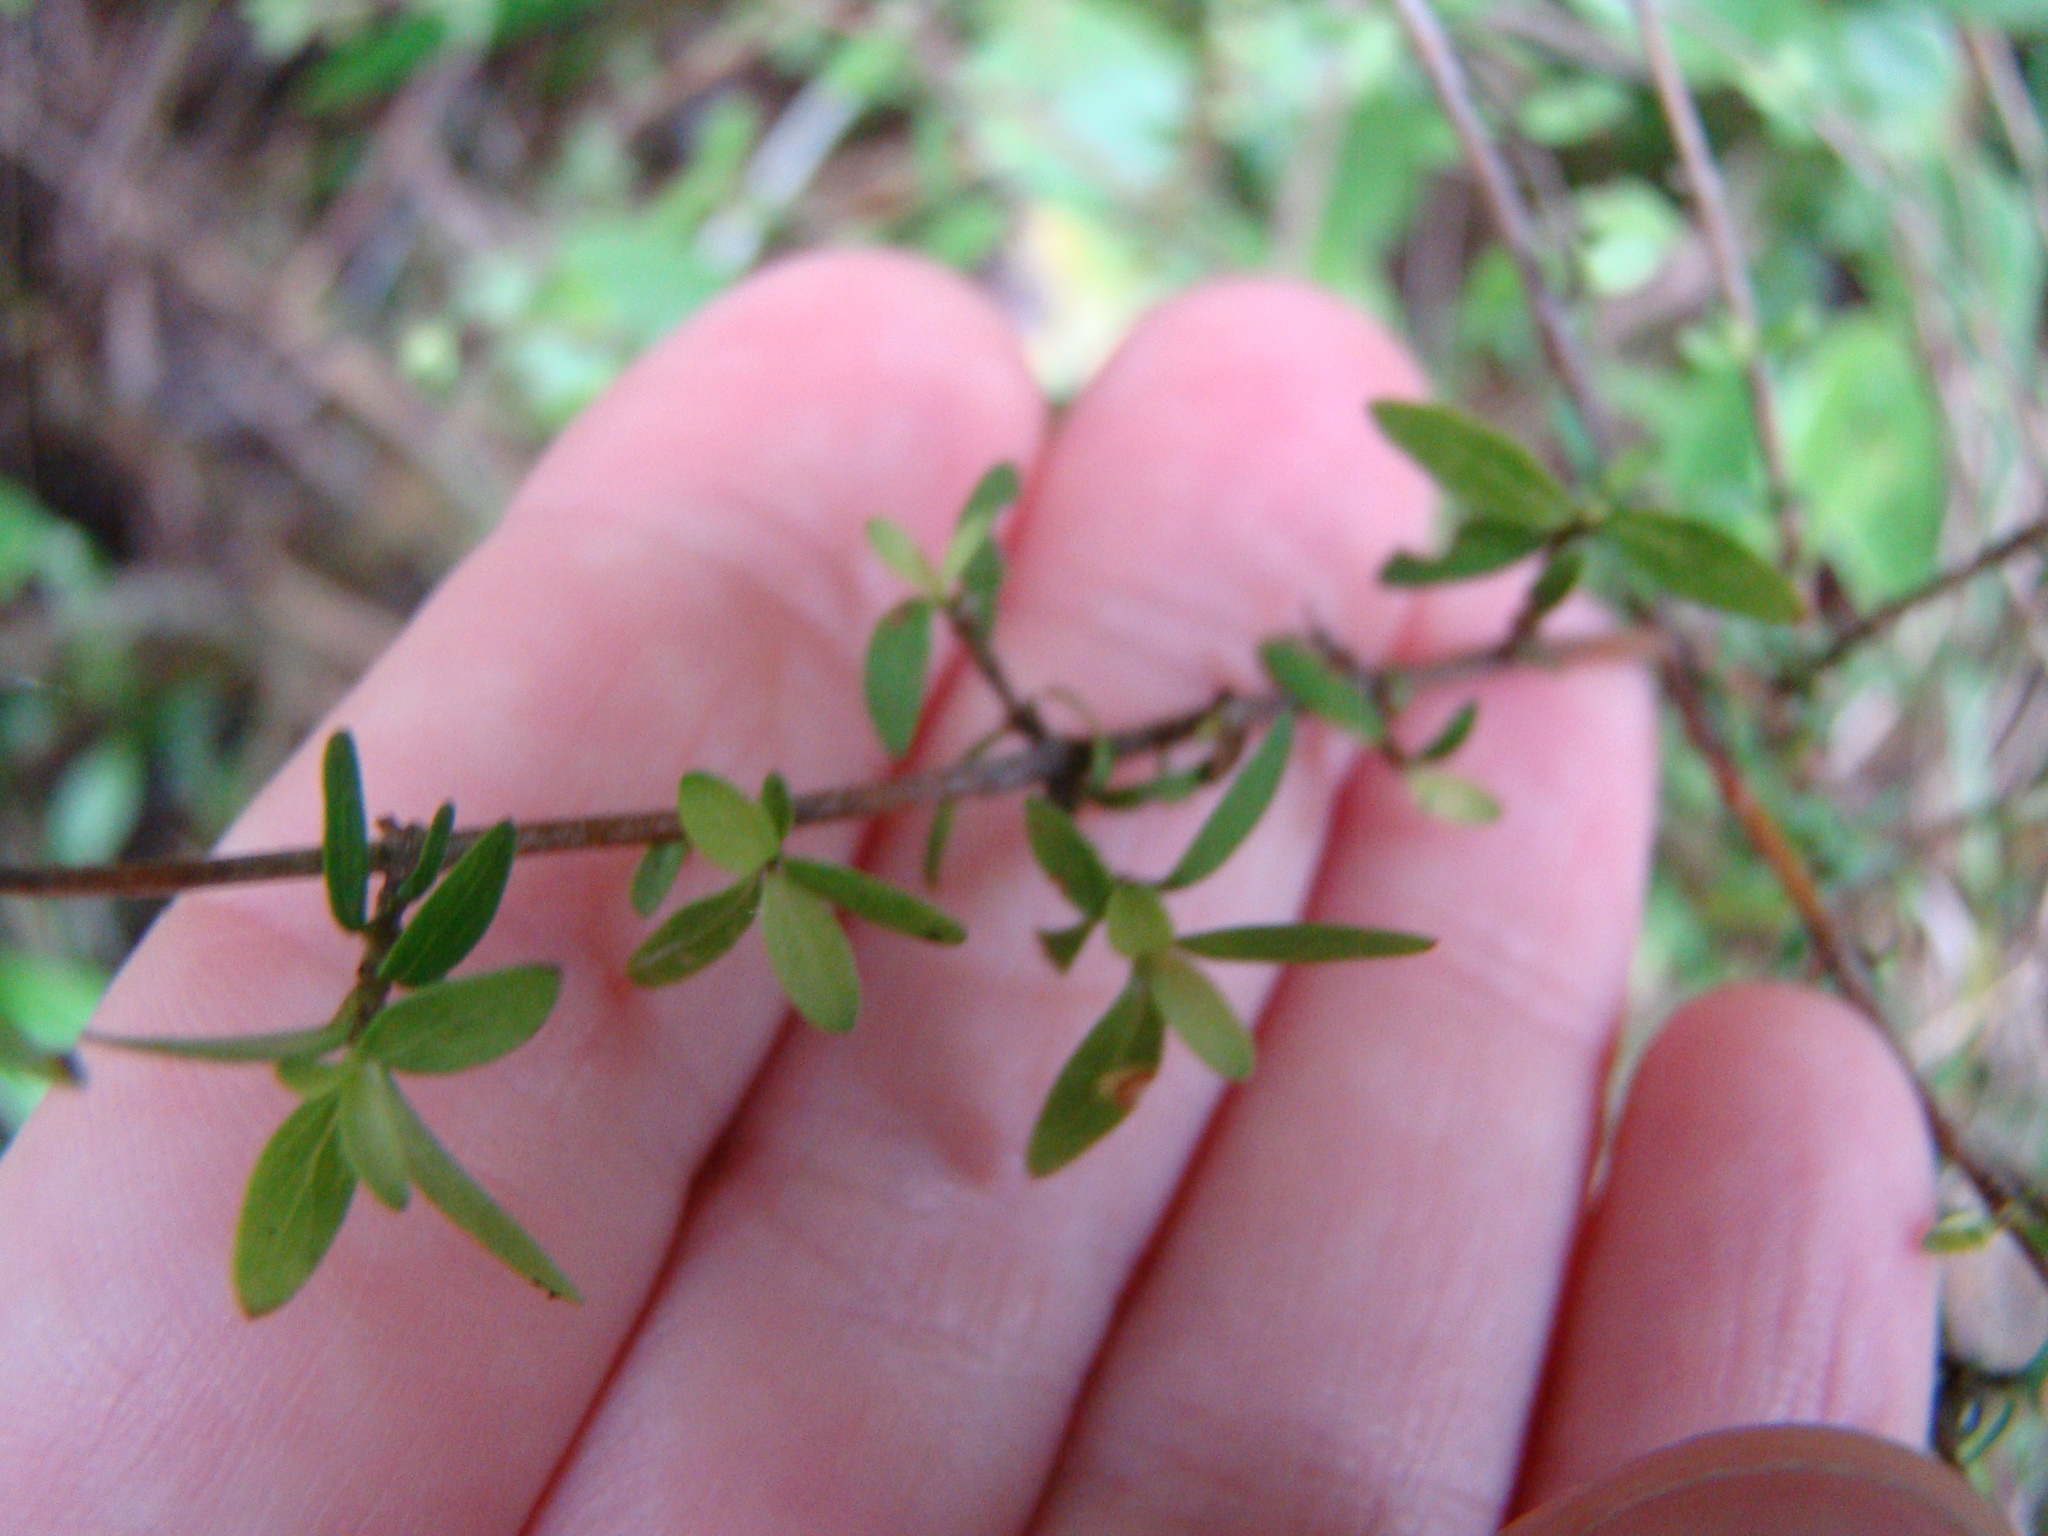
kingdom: Plantae
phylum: Tracheophyta
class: Magnoliopsida
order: Gentianales
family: Rubiaceae
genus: Coprosma
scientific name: Coprosma rhamnoides
